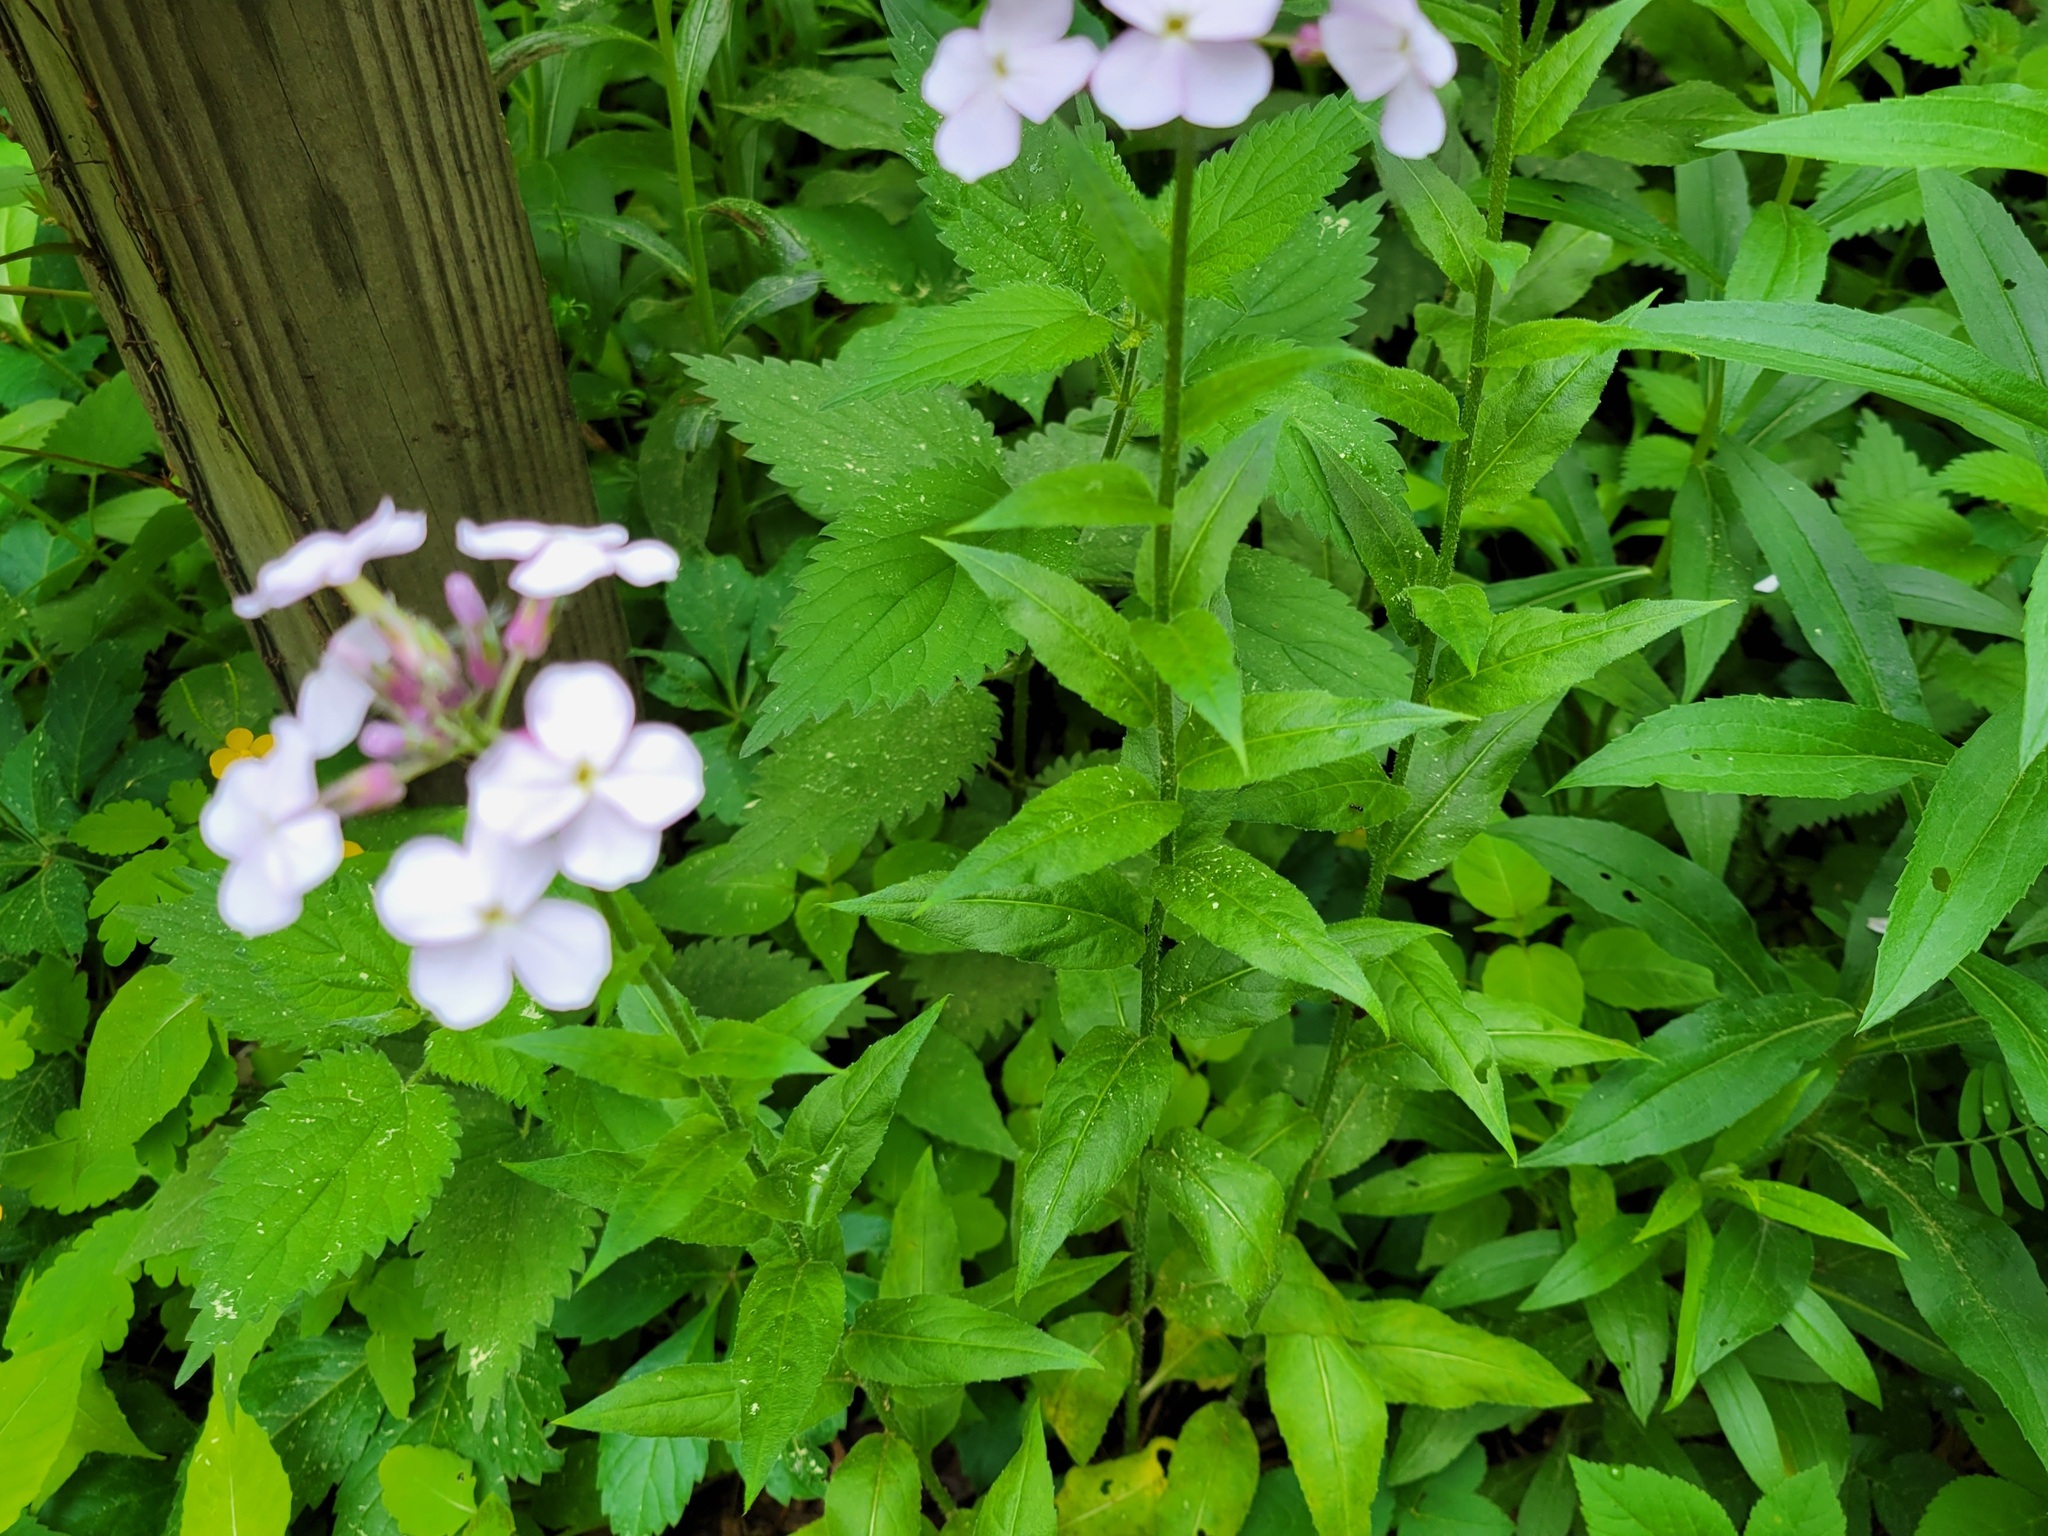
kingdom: Plantae
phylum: Tracheophyta
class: Magnoliopsida
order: Brassicales
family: Brassicaceae
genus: Hesperis
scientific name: Hesperis matronalis
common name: Dame's-violet
